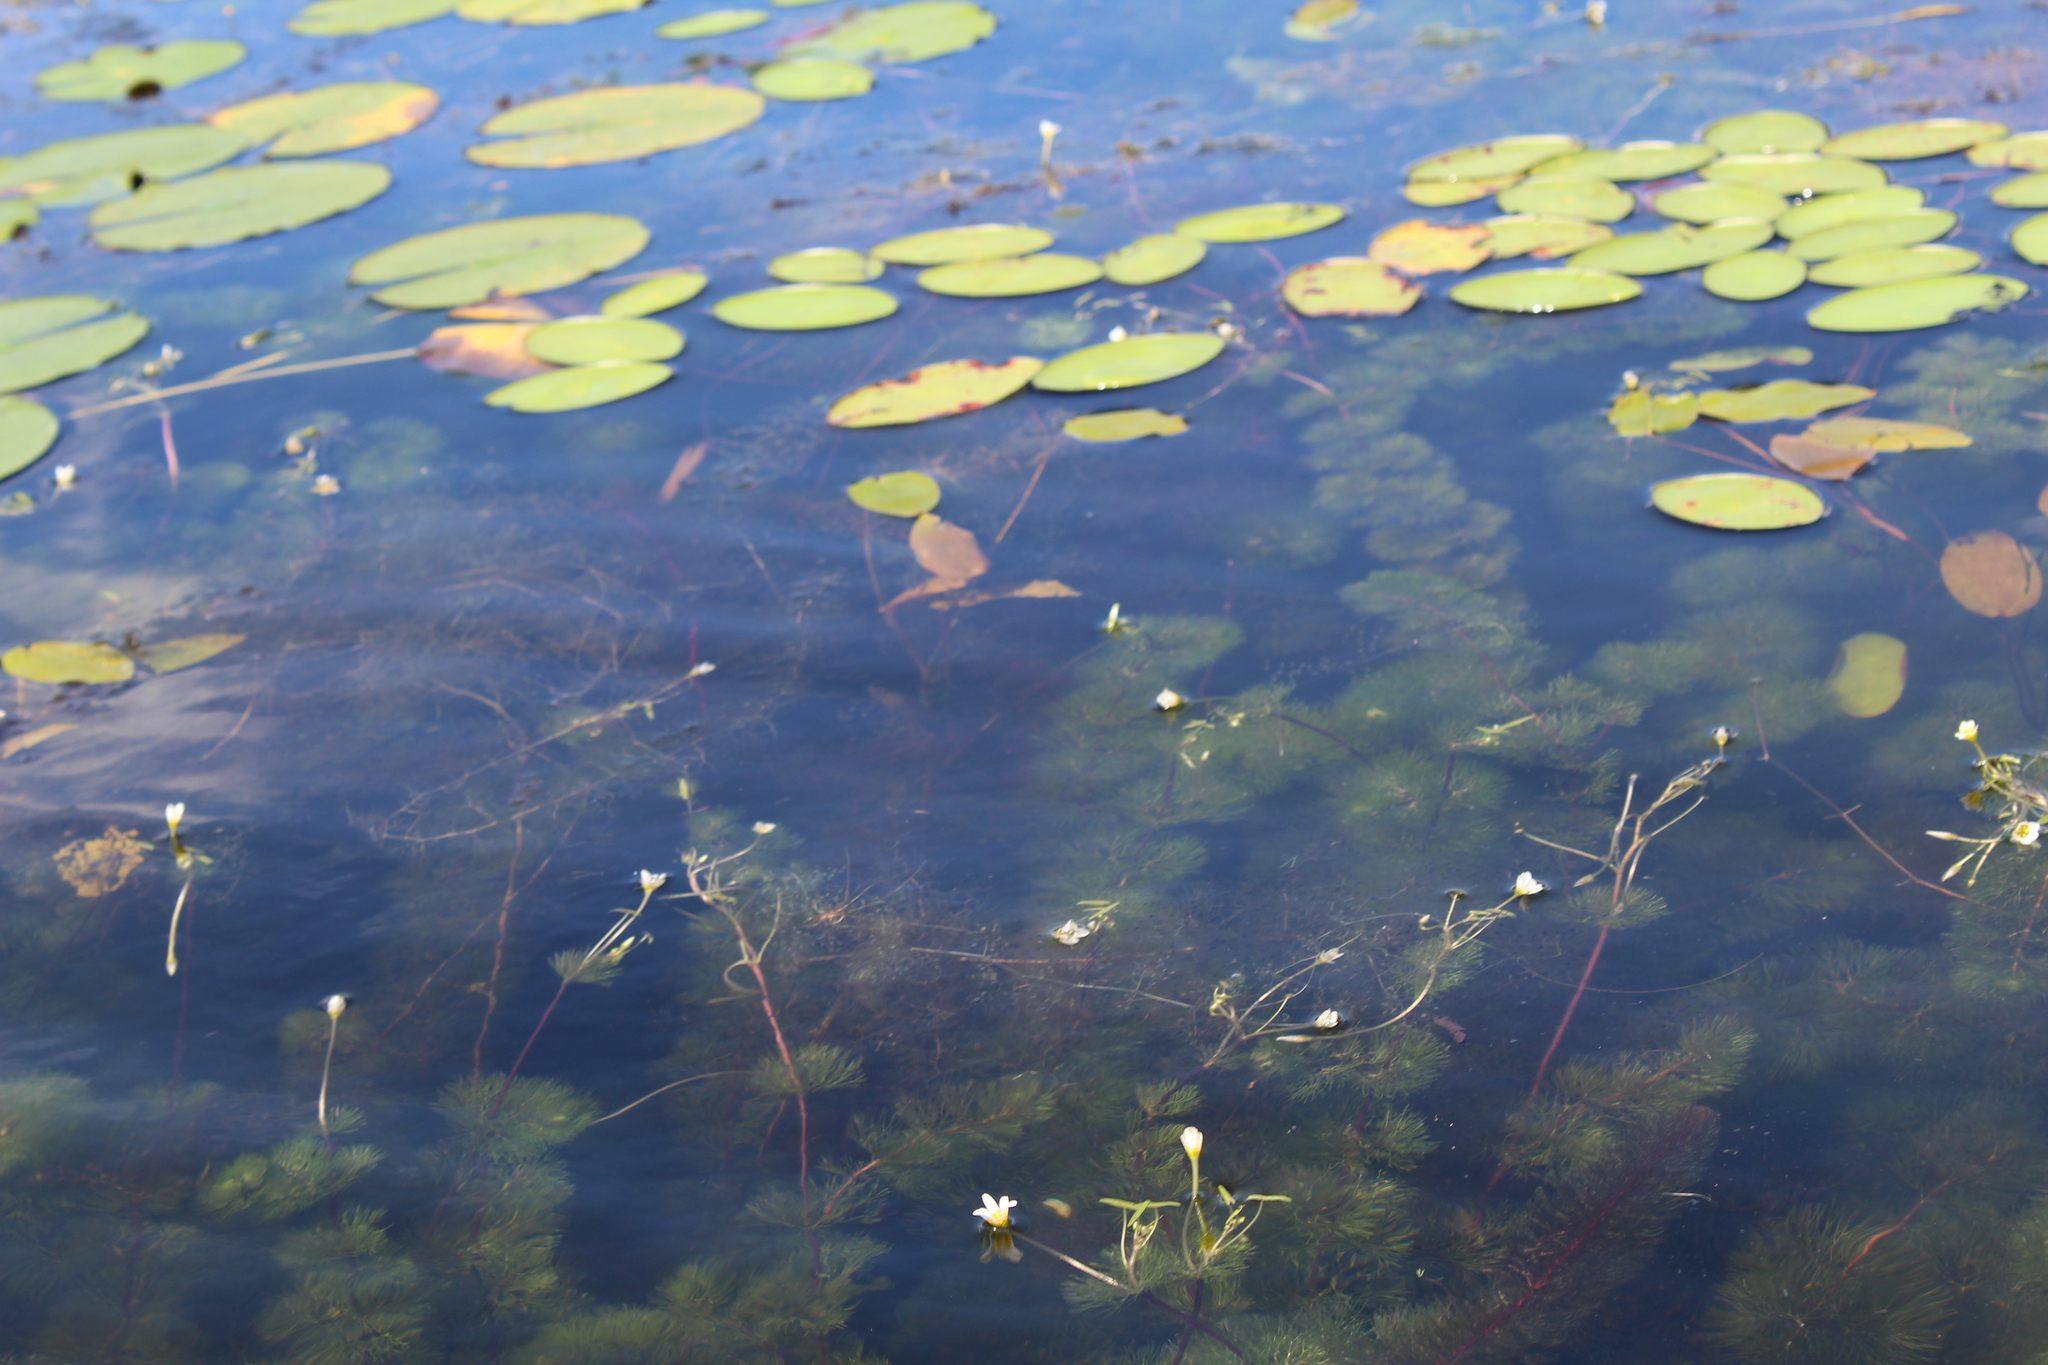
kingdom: Plantae
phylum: Tracheophyta
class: Magnoliopsida
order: Nymphaeales
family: Cabombaceae
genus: Brasenia
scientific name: Brasenia schreberi
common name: Water-shield
